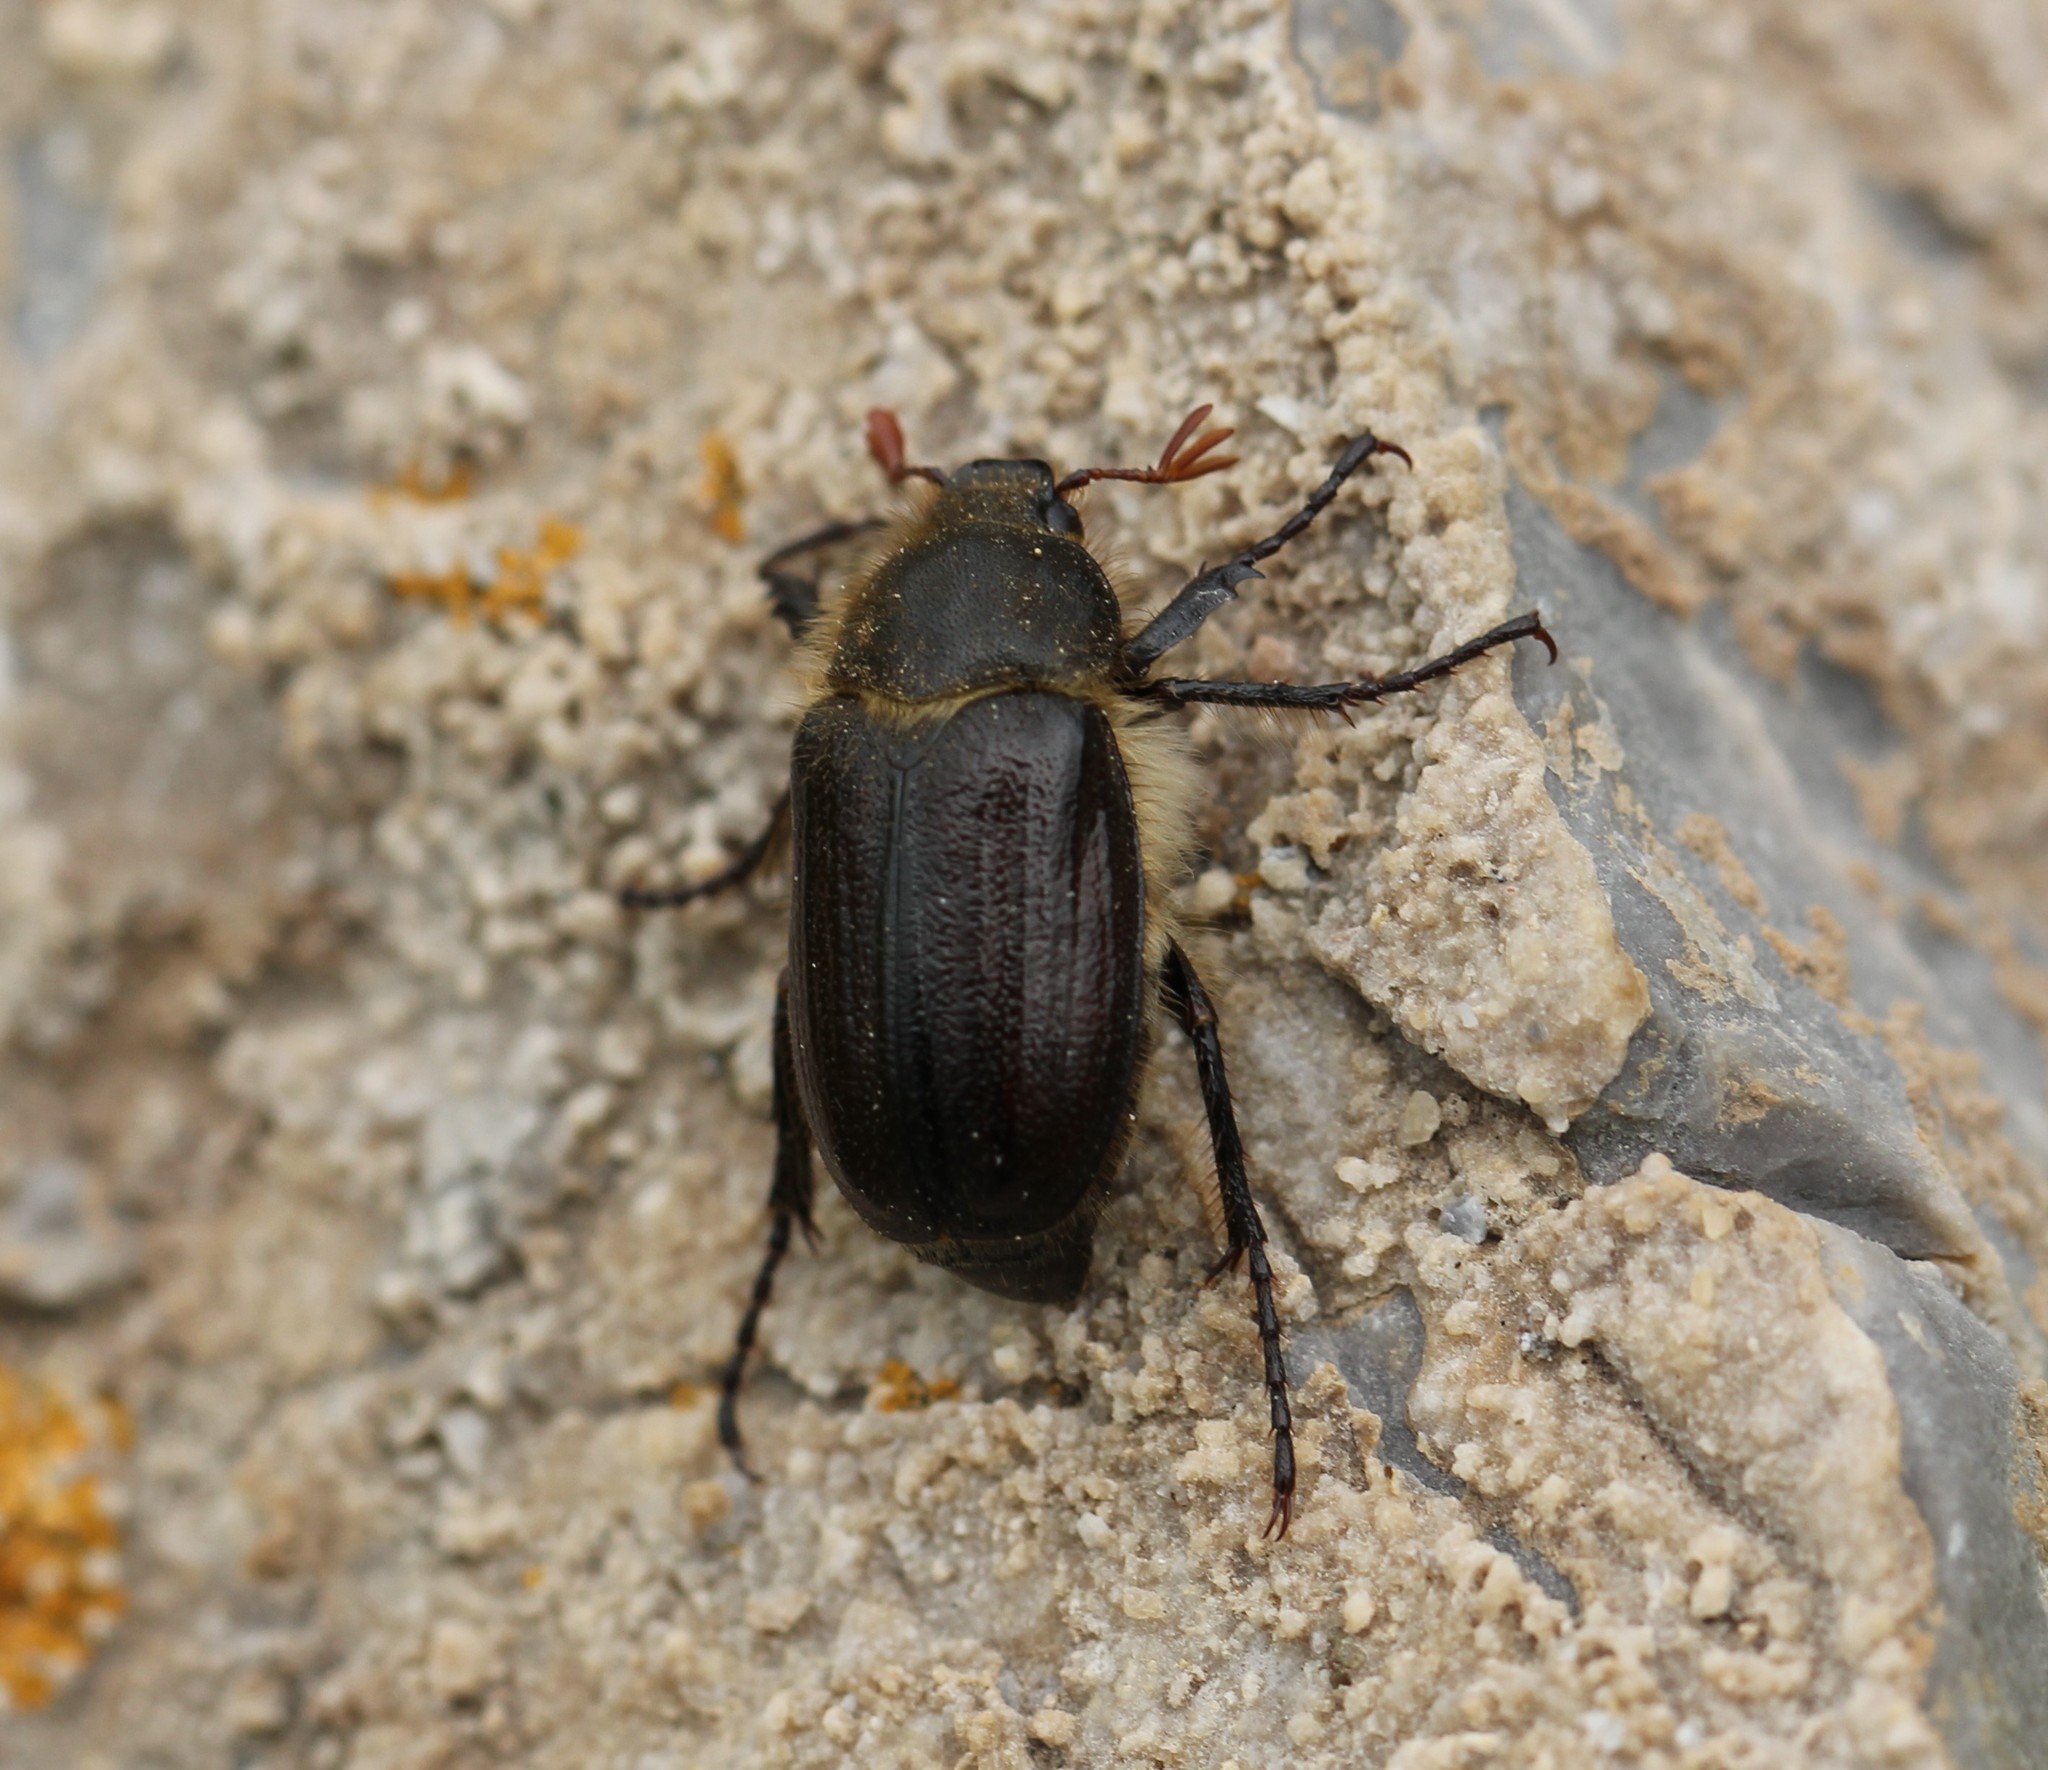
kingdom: Animalia
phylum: Arthropoda
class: Insecta
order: Coleoptera
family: Scarabaeidae
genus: Amphimallon
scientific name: Amphimallon atrum
